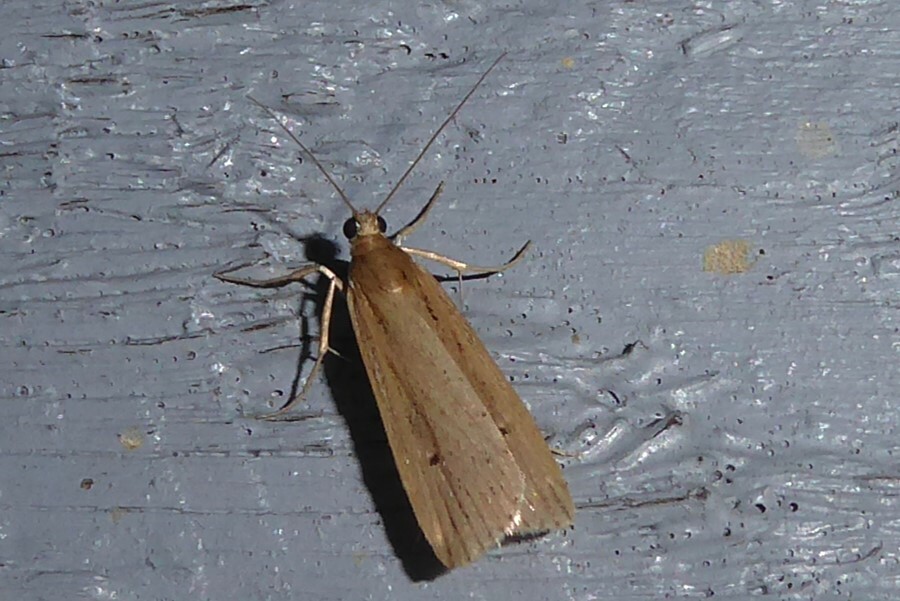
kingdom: Animalia
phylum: Arthropoda
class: Insecta
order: Lepidoptera
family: Crambidae
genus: Eudonia
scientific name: Eudonia sabulosella
